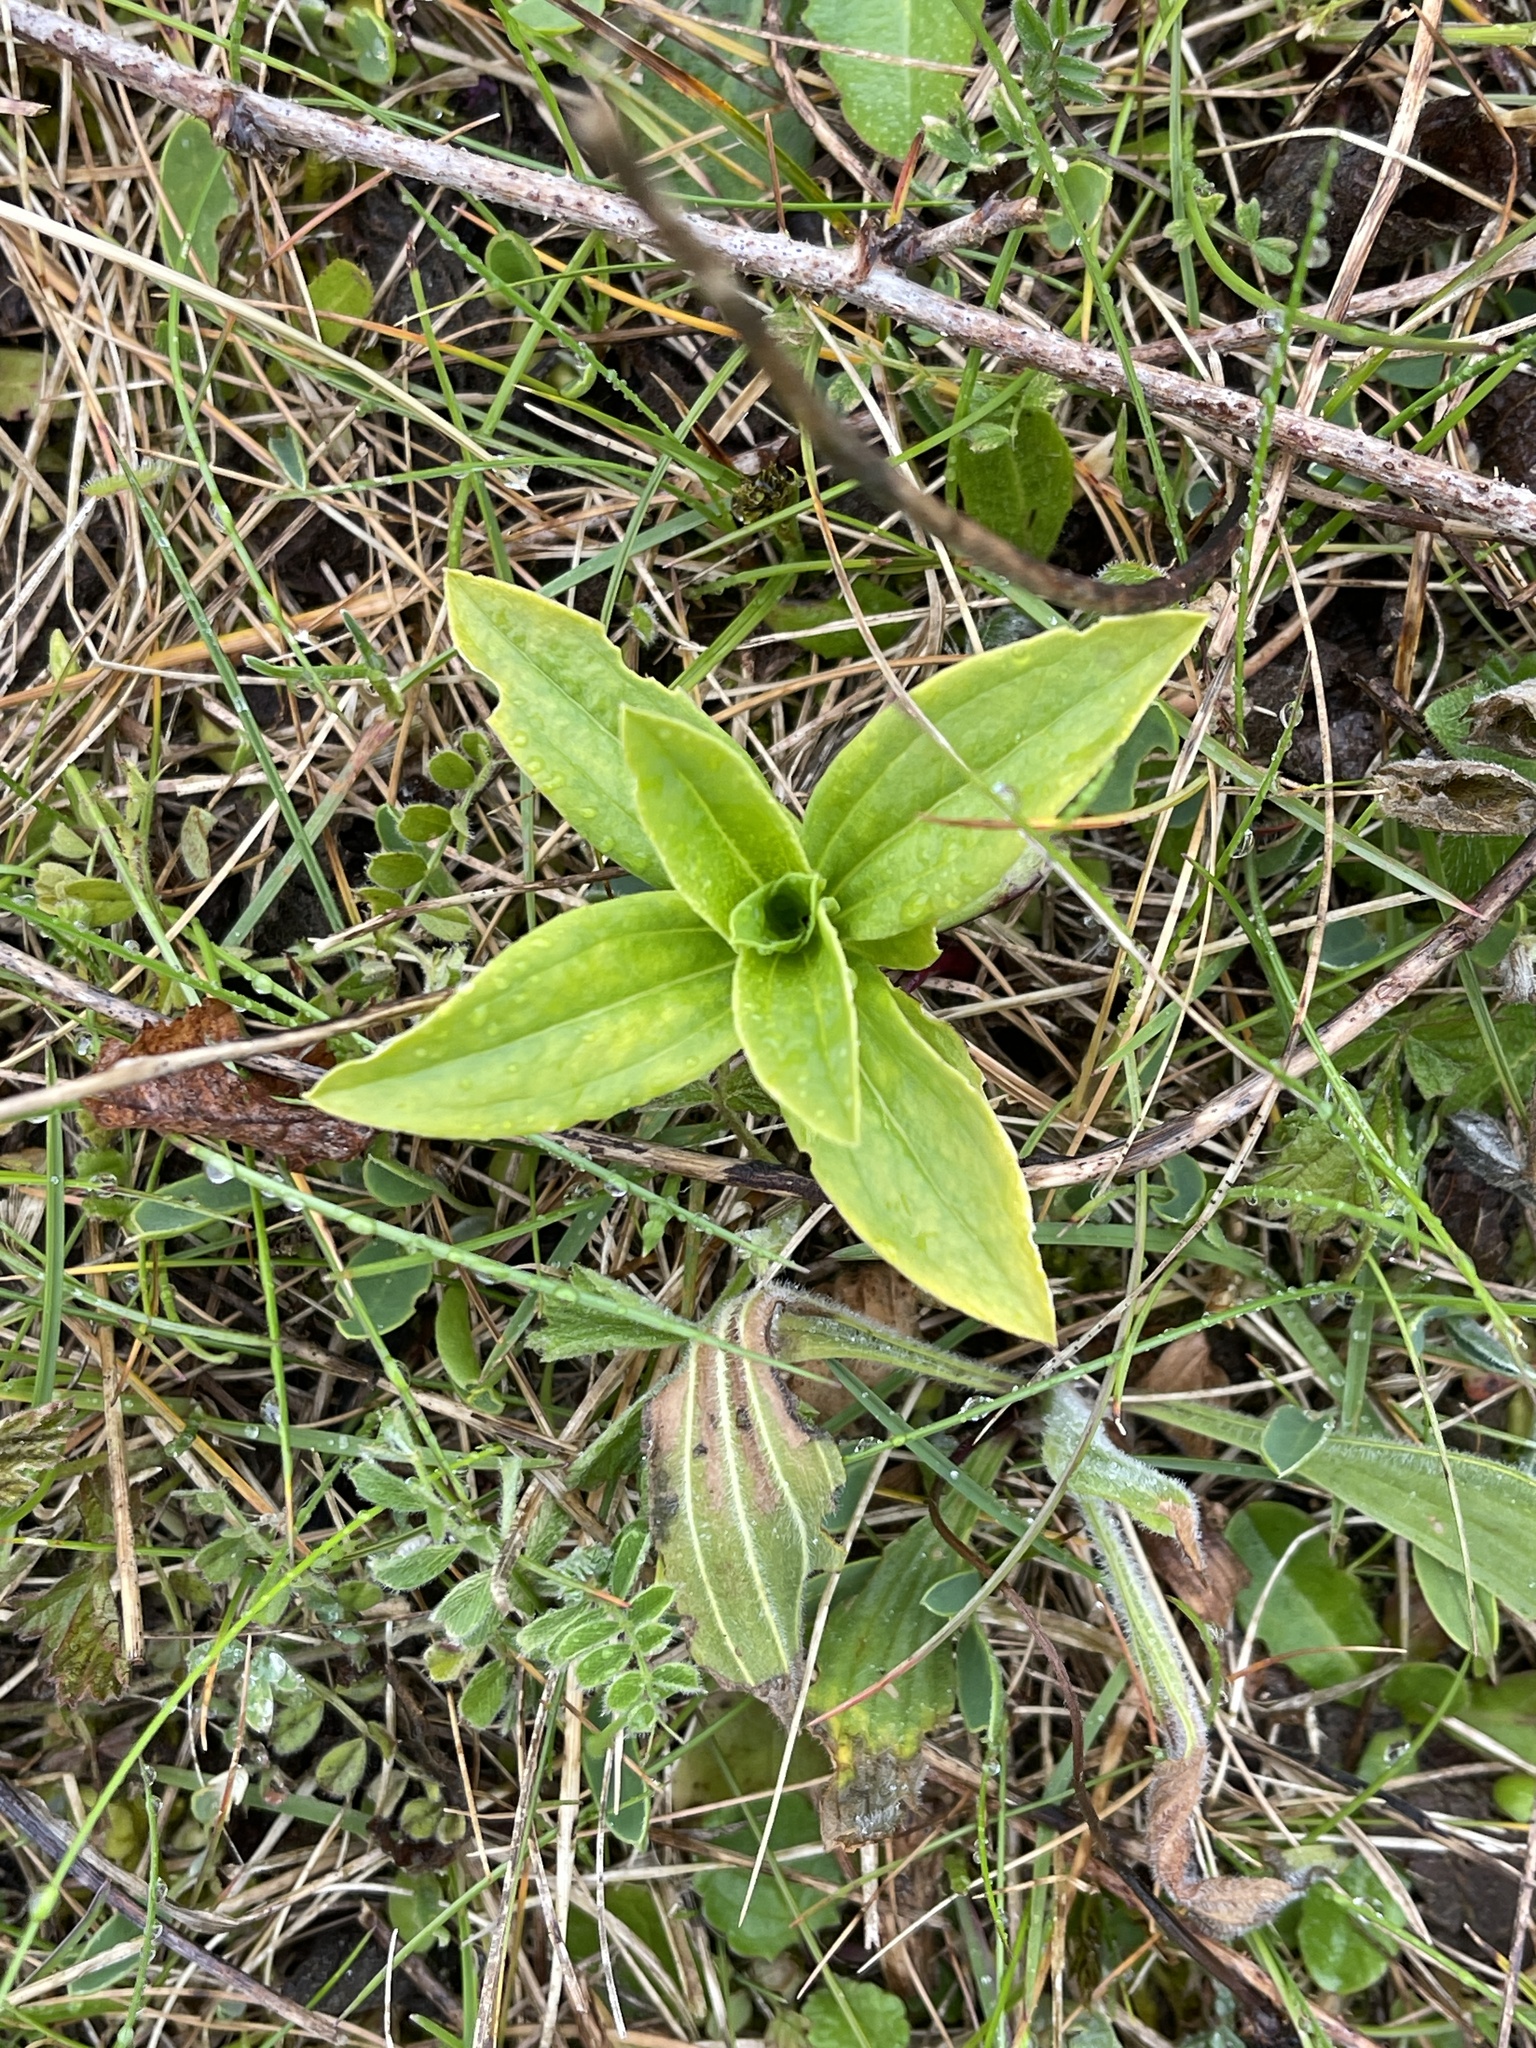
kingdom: Plantae
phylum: Tracheophyta
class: Magnoliopsida
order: Caryophyllales
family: Caryophyllaceae
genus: Saponaria
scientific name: Saponaria officinalis
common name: Soapwort
